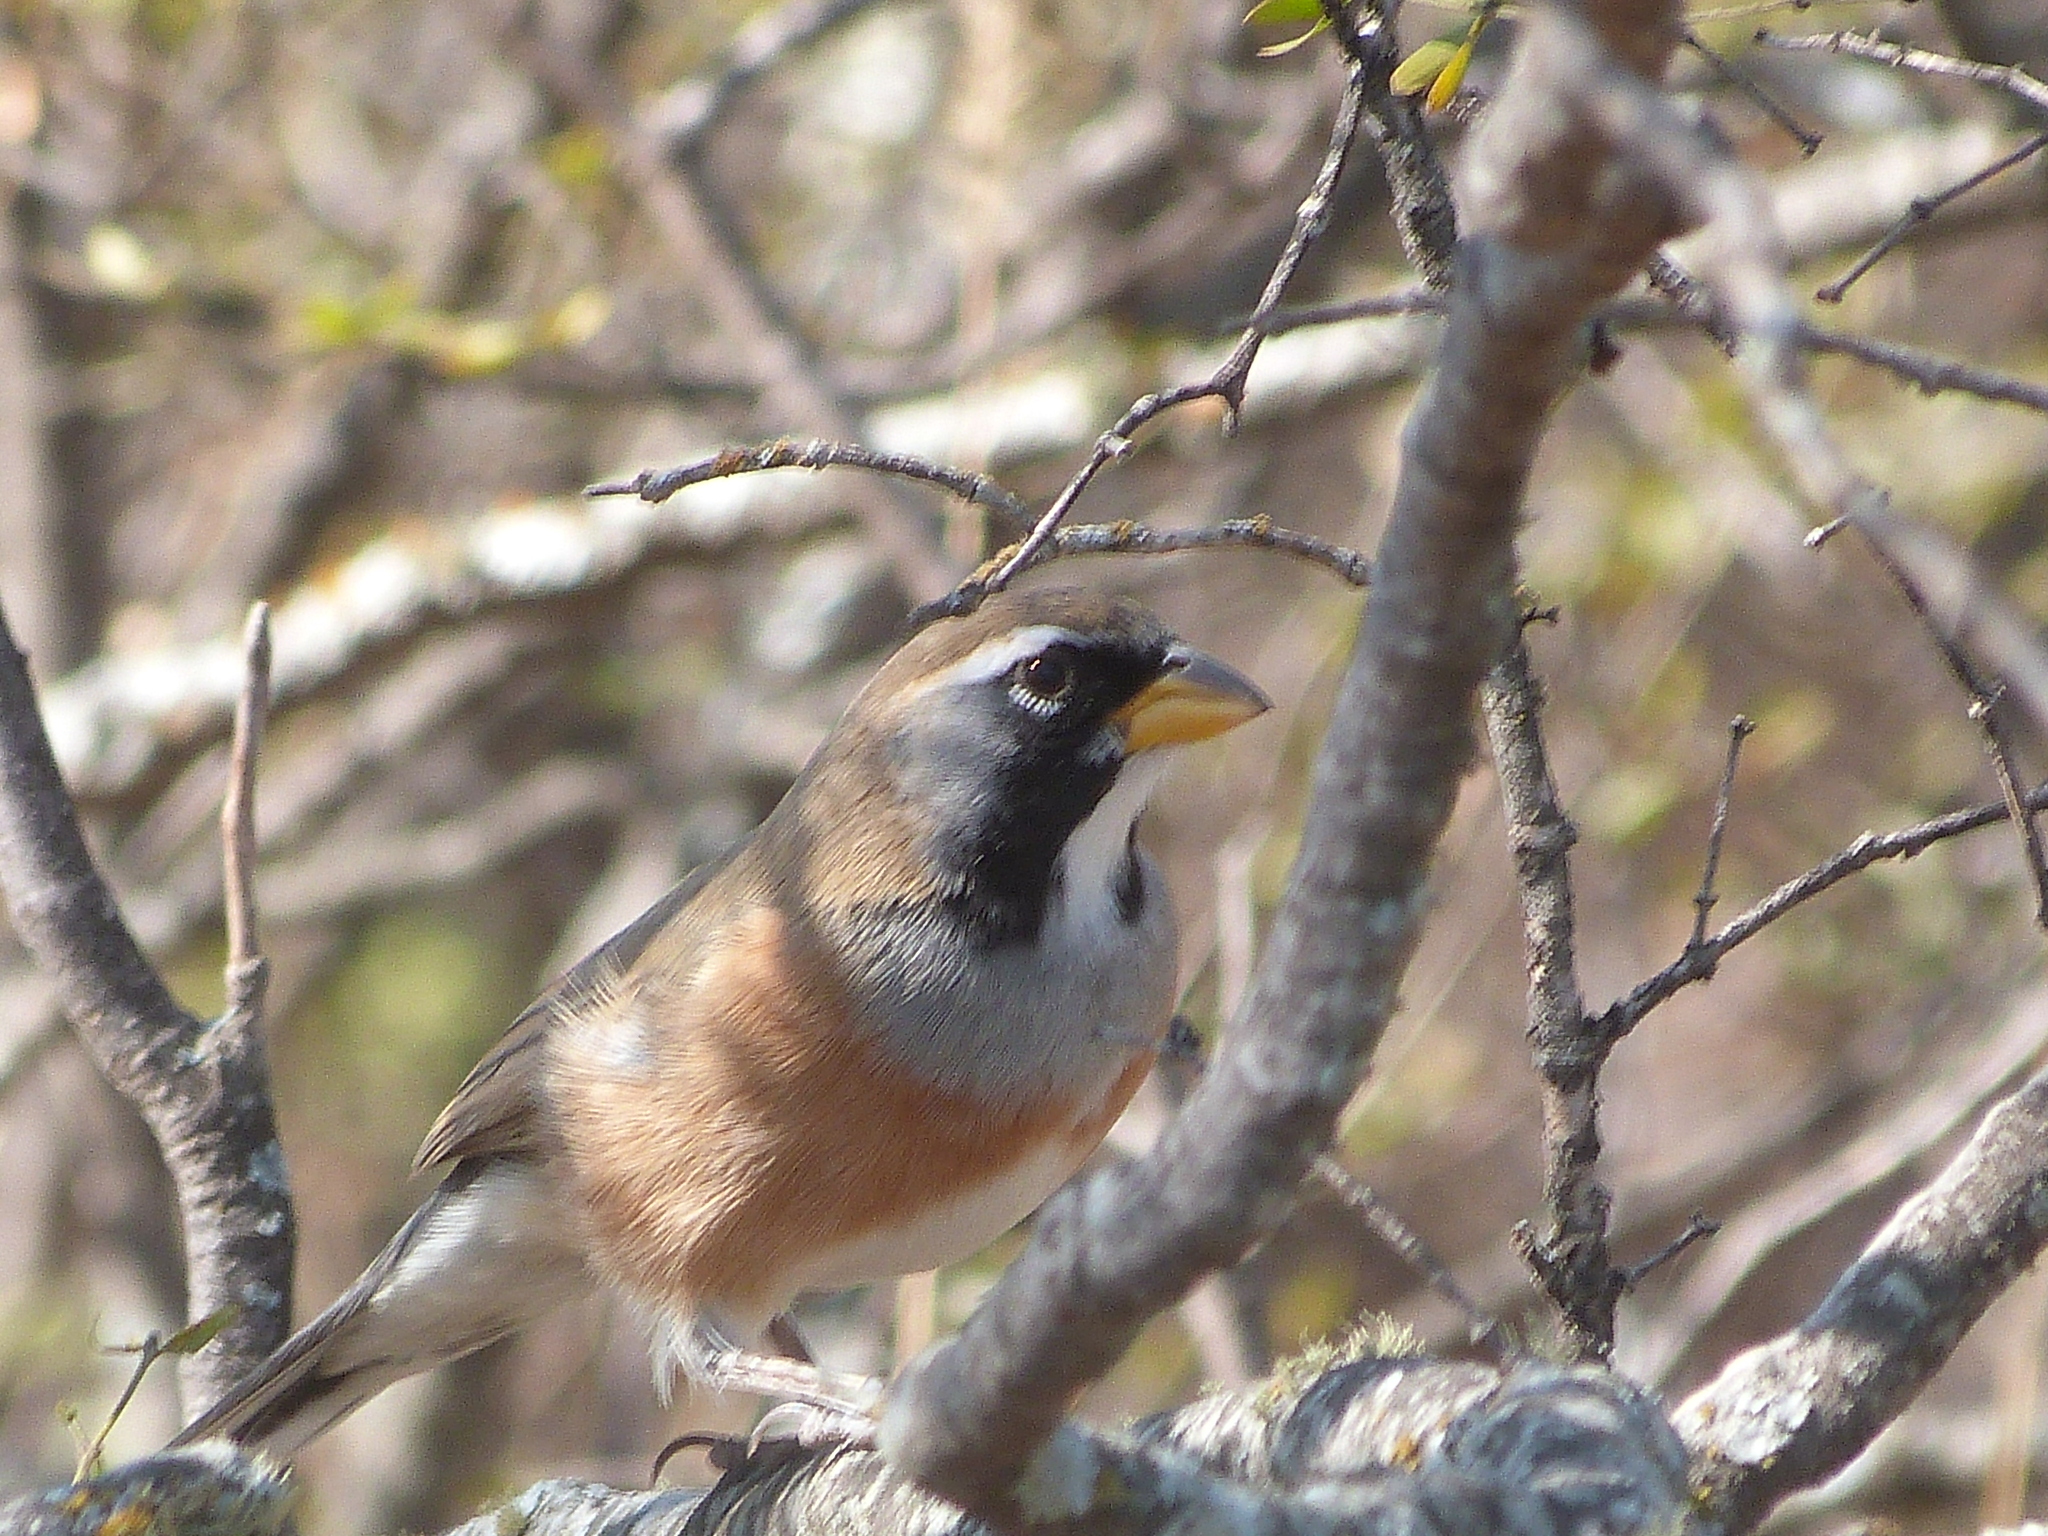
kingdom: Animalia
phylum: Chordata
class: Aves
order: Passeriformes
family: Thraupidae
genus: Saltatricula
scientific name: Saltatricula multicolor
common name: Many-colored chaco finch
